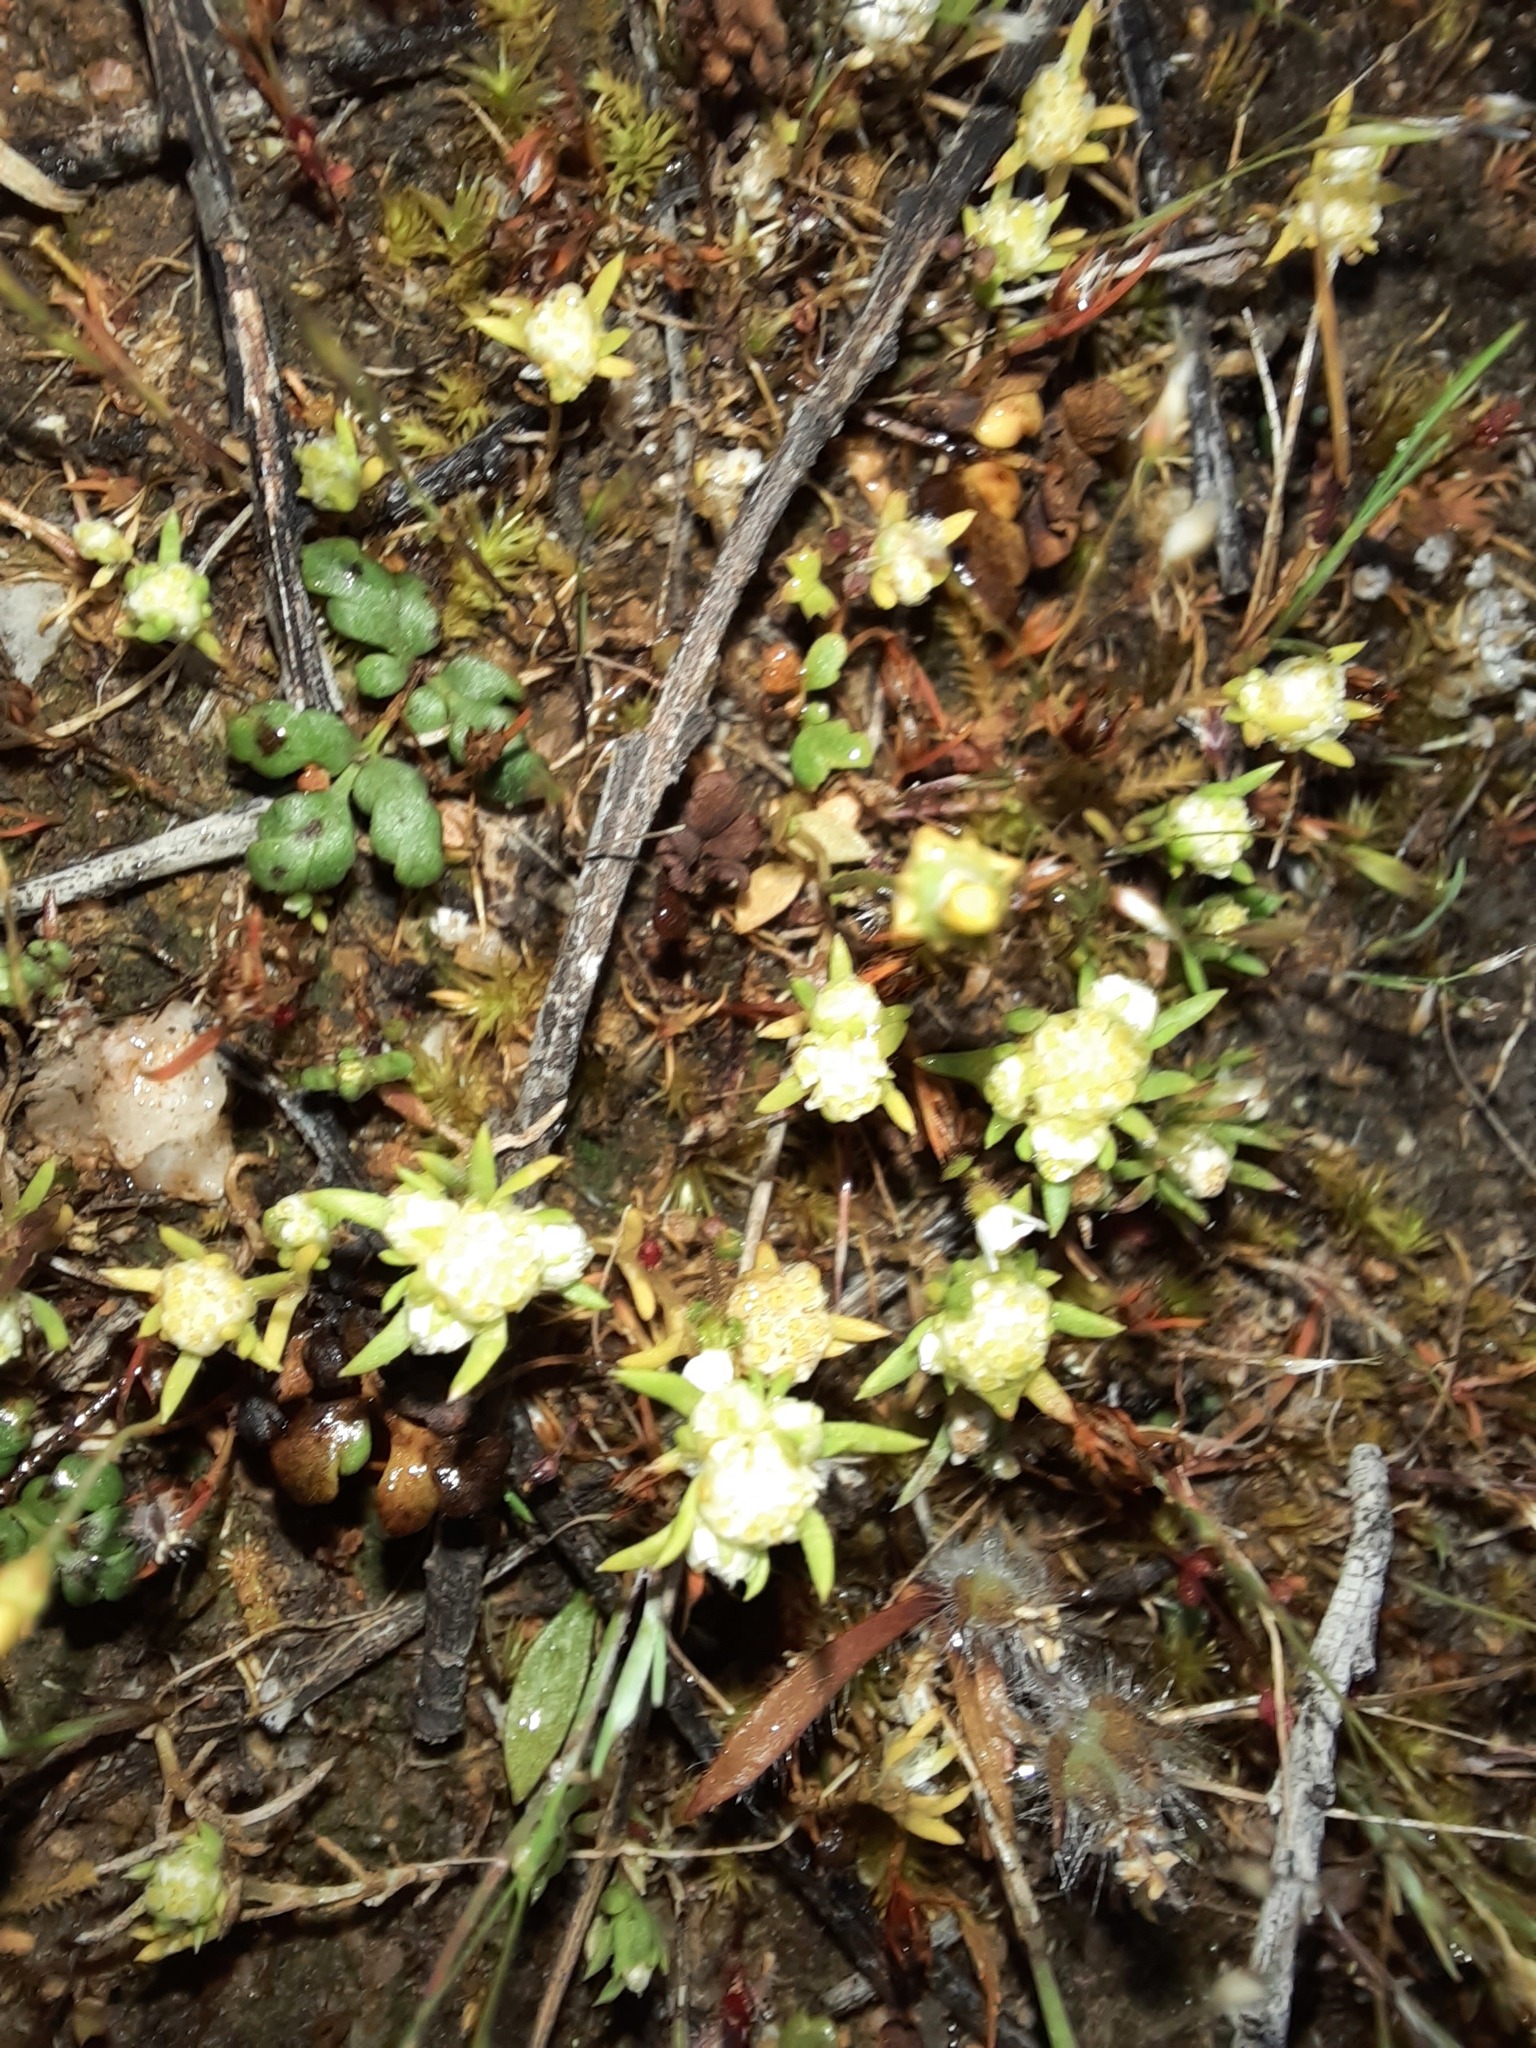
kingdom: Plantae
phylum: Tracheophyta
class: Magnoliopsida
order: Asterales
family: Asteraceae
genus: Siloxerus
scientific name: Siloxerus multiflorus
